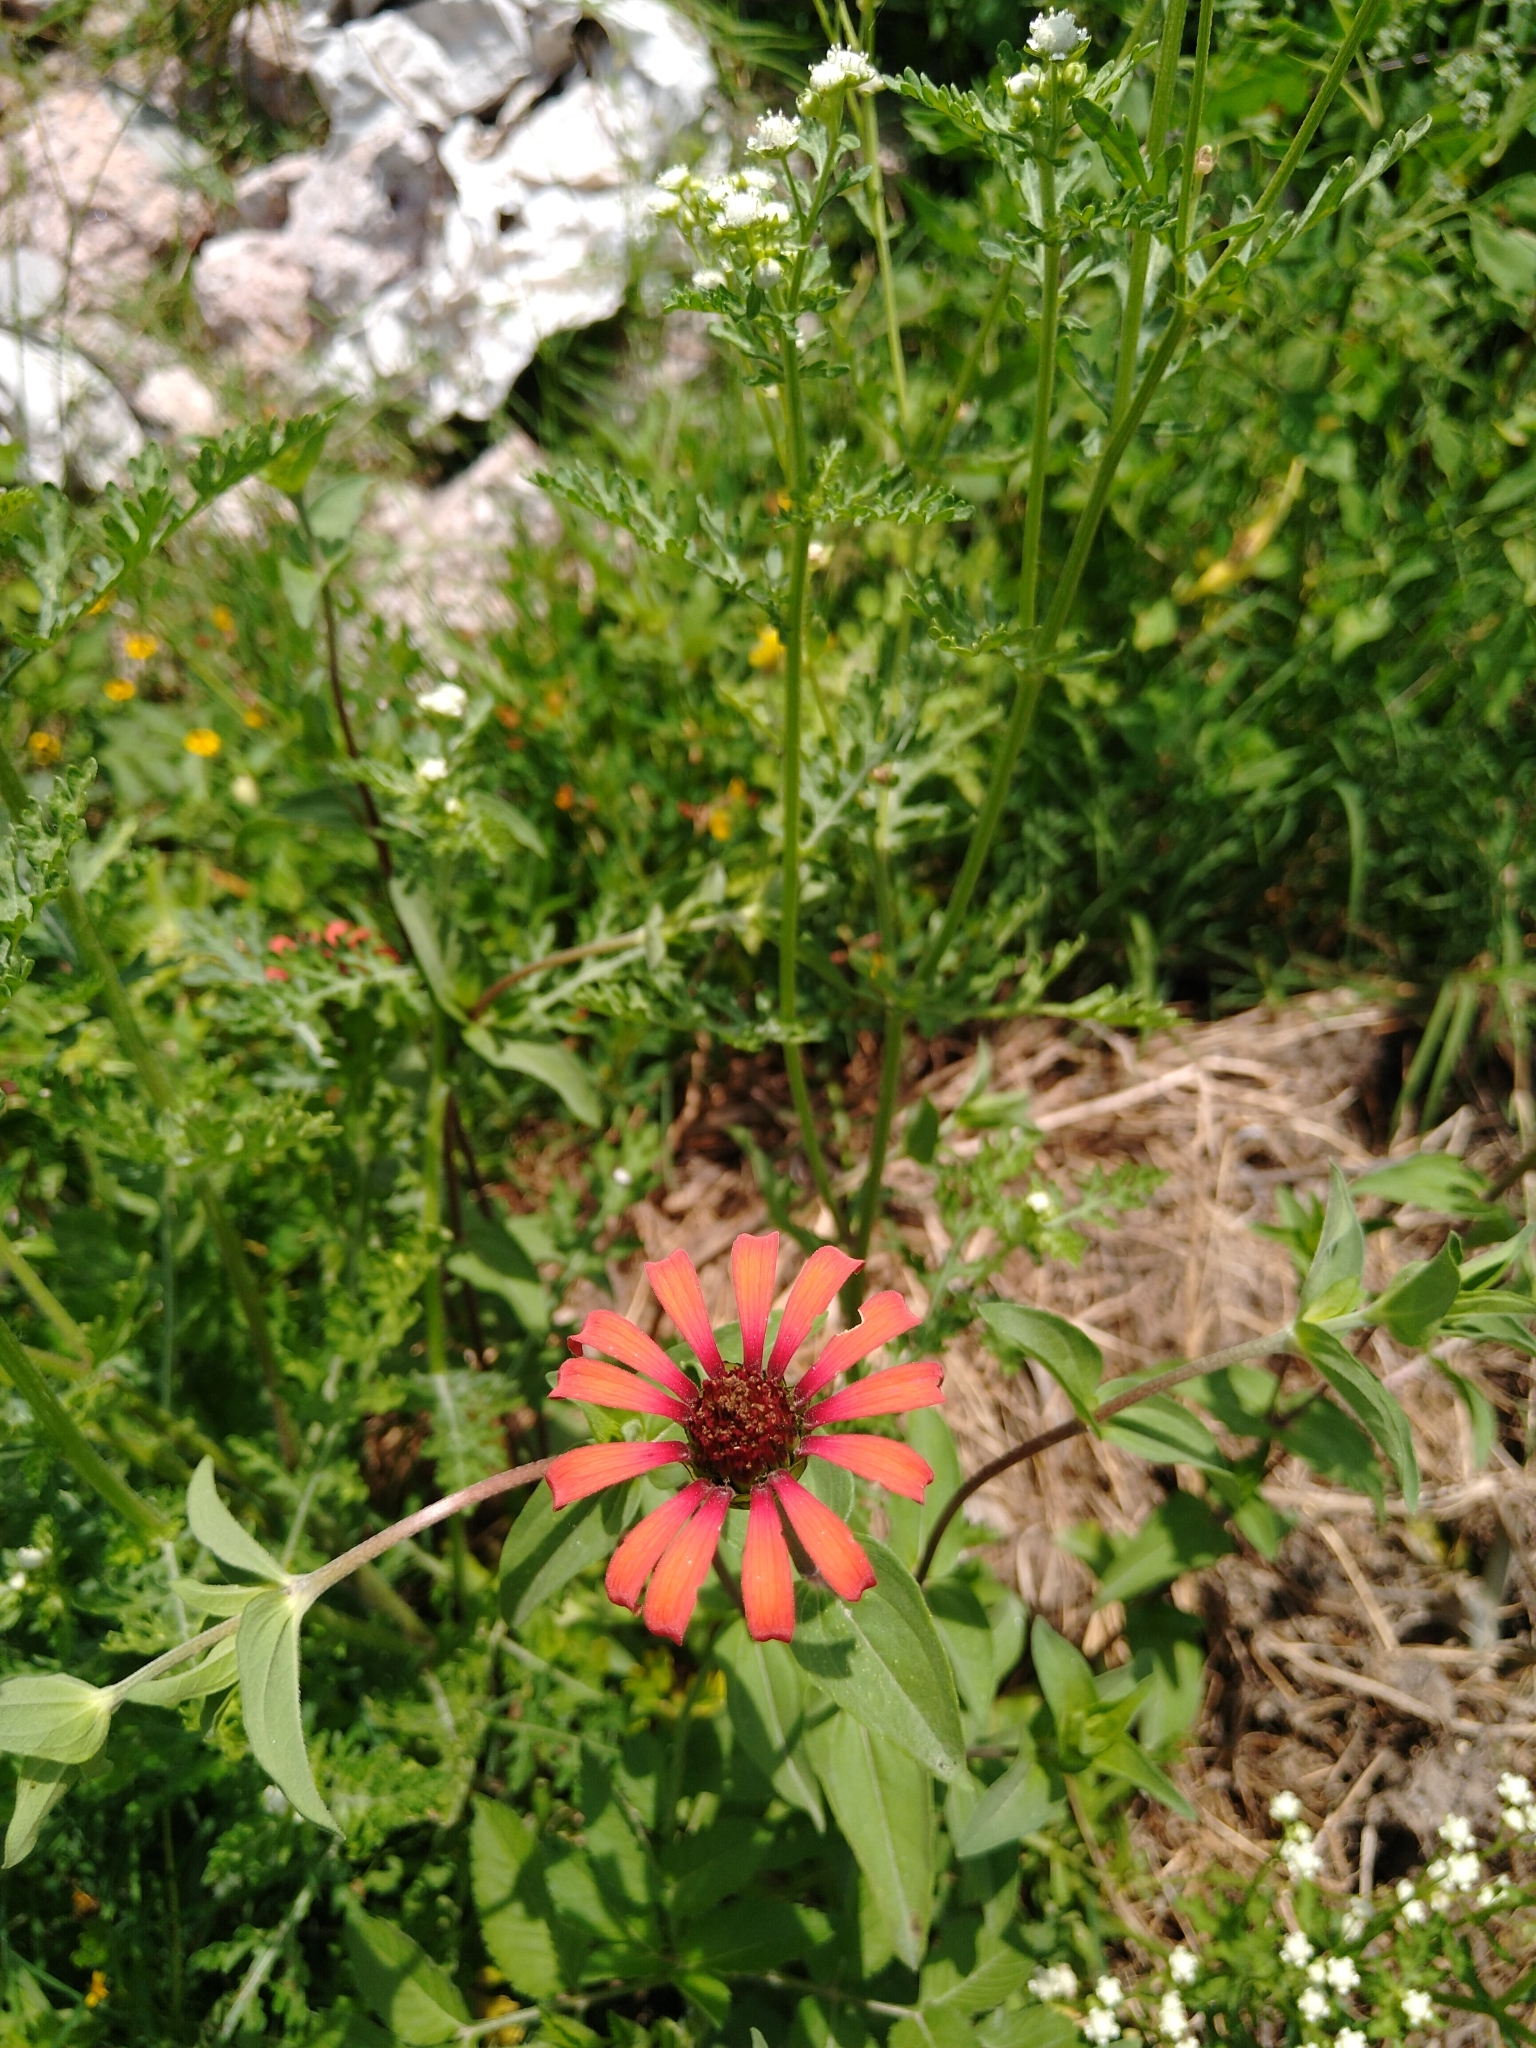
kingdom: Plantae
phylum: Tracheophyta
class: Magnoliopsida
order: Asterales
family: Asteraceae
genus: Zinnia
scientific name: Zinnia peruviana
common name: Peruvian zinnia
